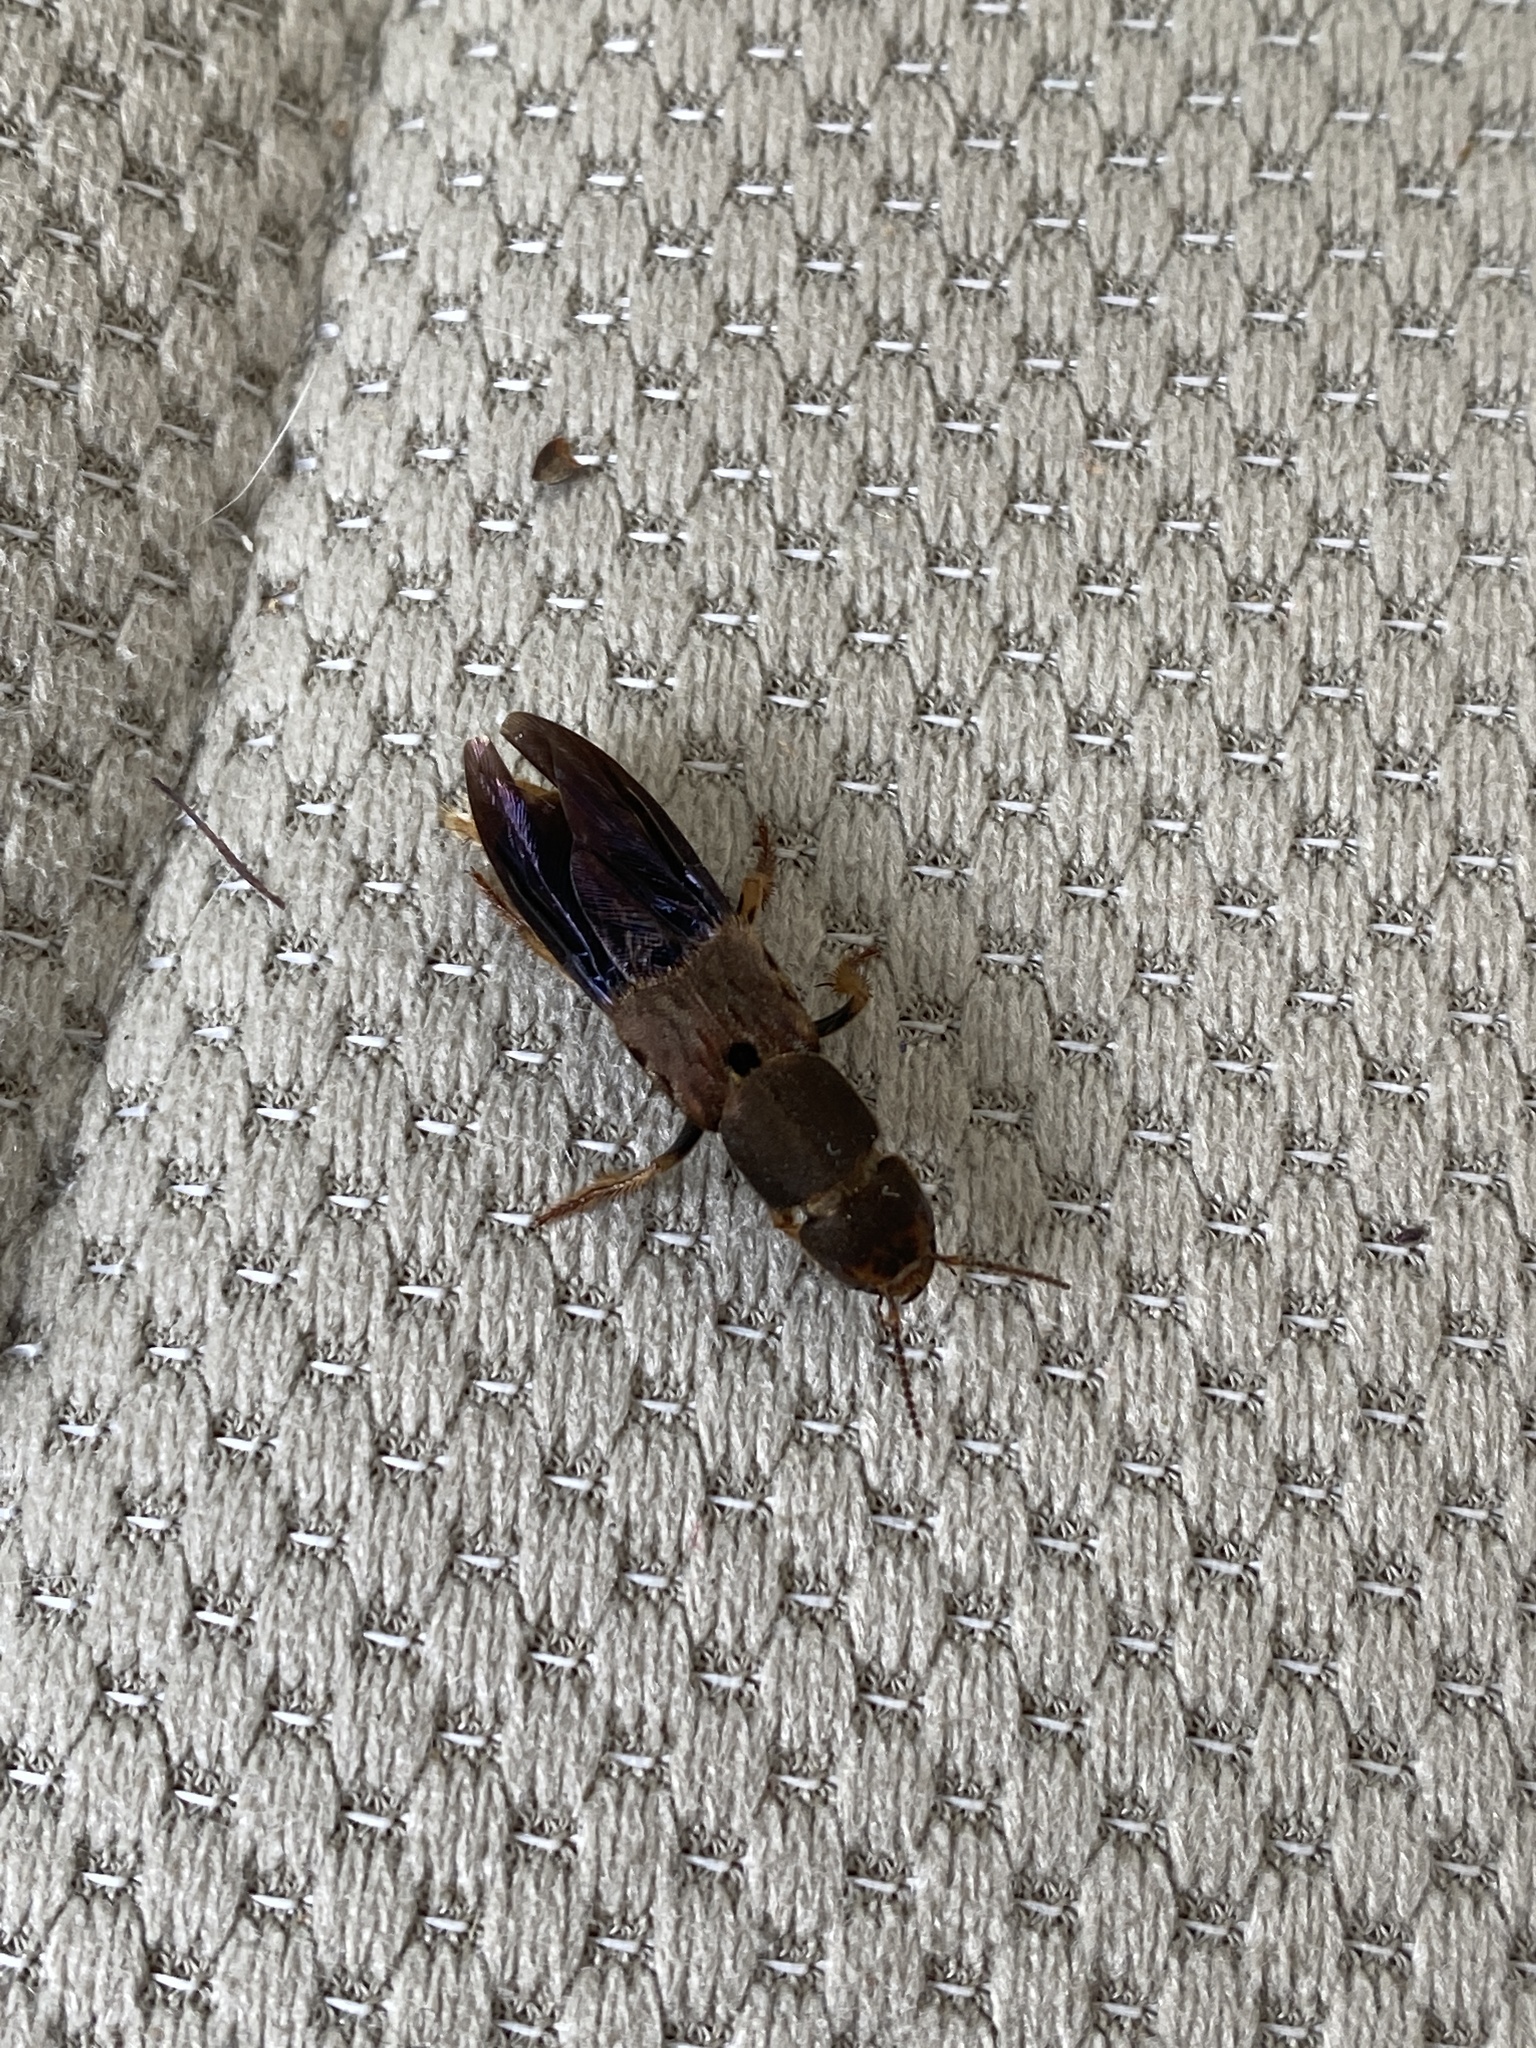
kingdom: Animalia
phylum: Arthropoda
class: Insecta
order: Coleoptera
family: Staphylinidae
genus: Platydracus
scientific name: Platydracus maculosus
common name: Brown rove beetle
